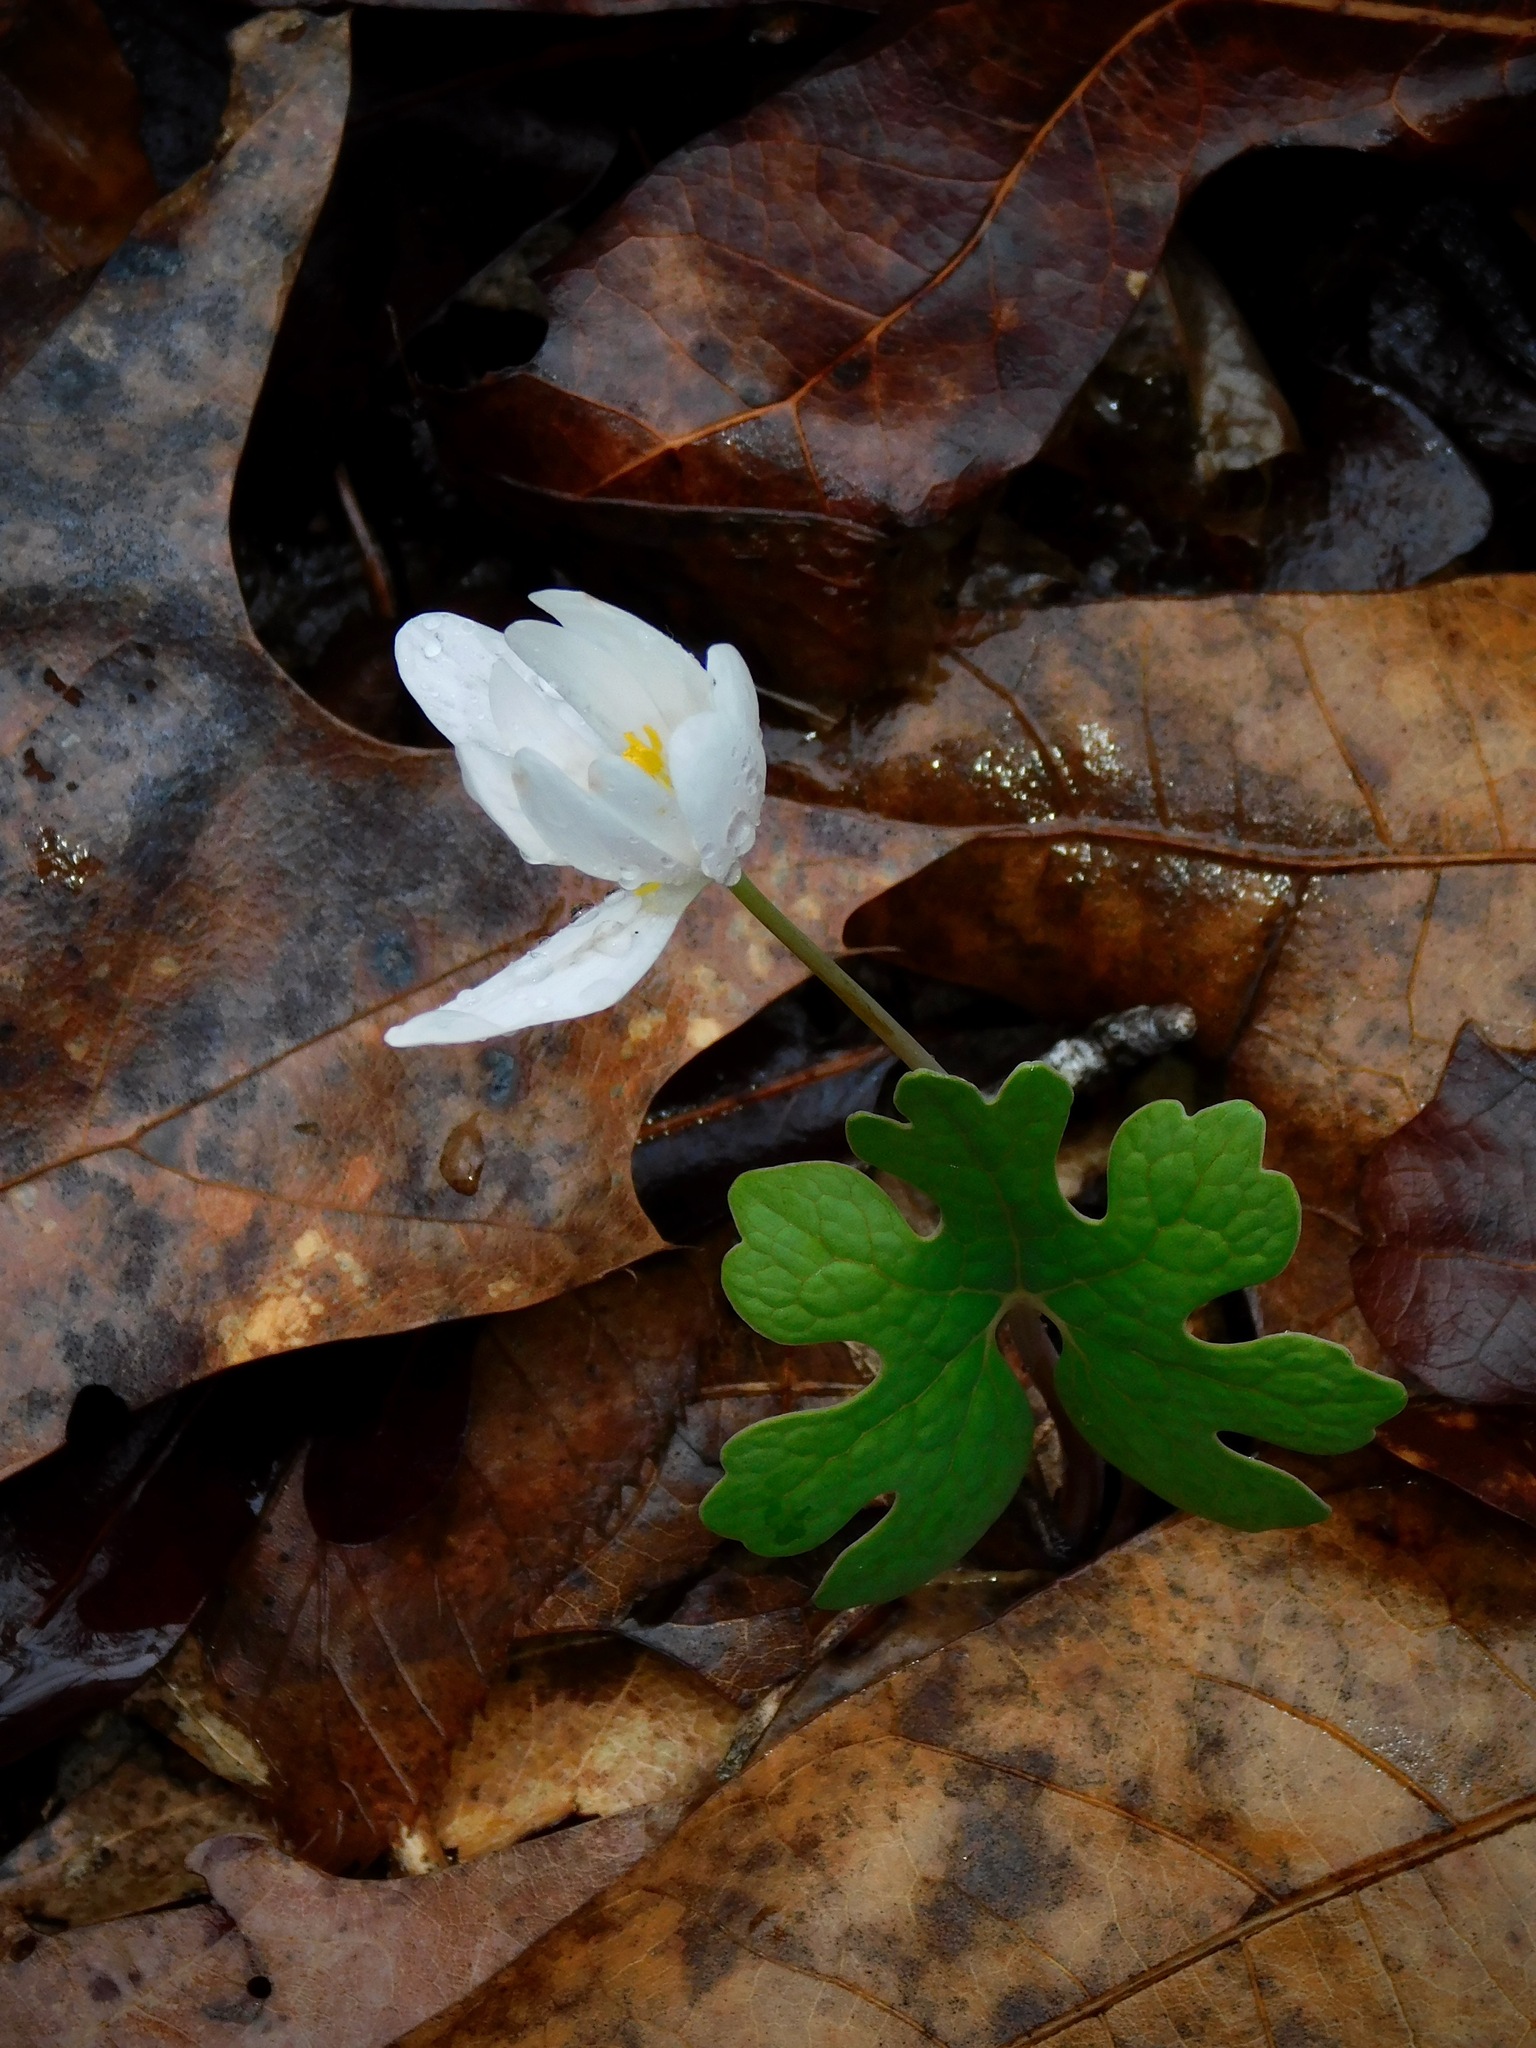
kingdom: Plantae
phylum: Tracheophyta
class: Magnoliopsida
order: Ranunculales
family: Papaveraceae
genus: Sanguinaria
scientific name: Sanguinaria canadensis
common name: Bloodroot
